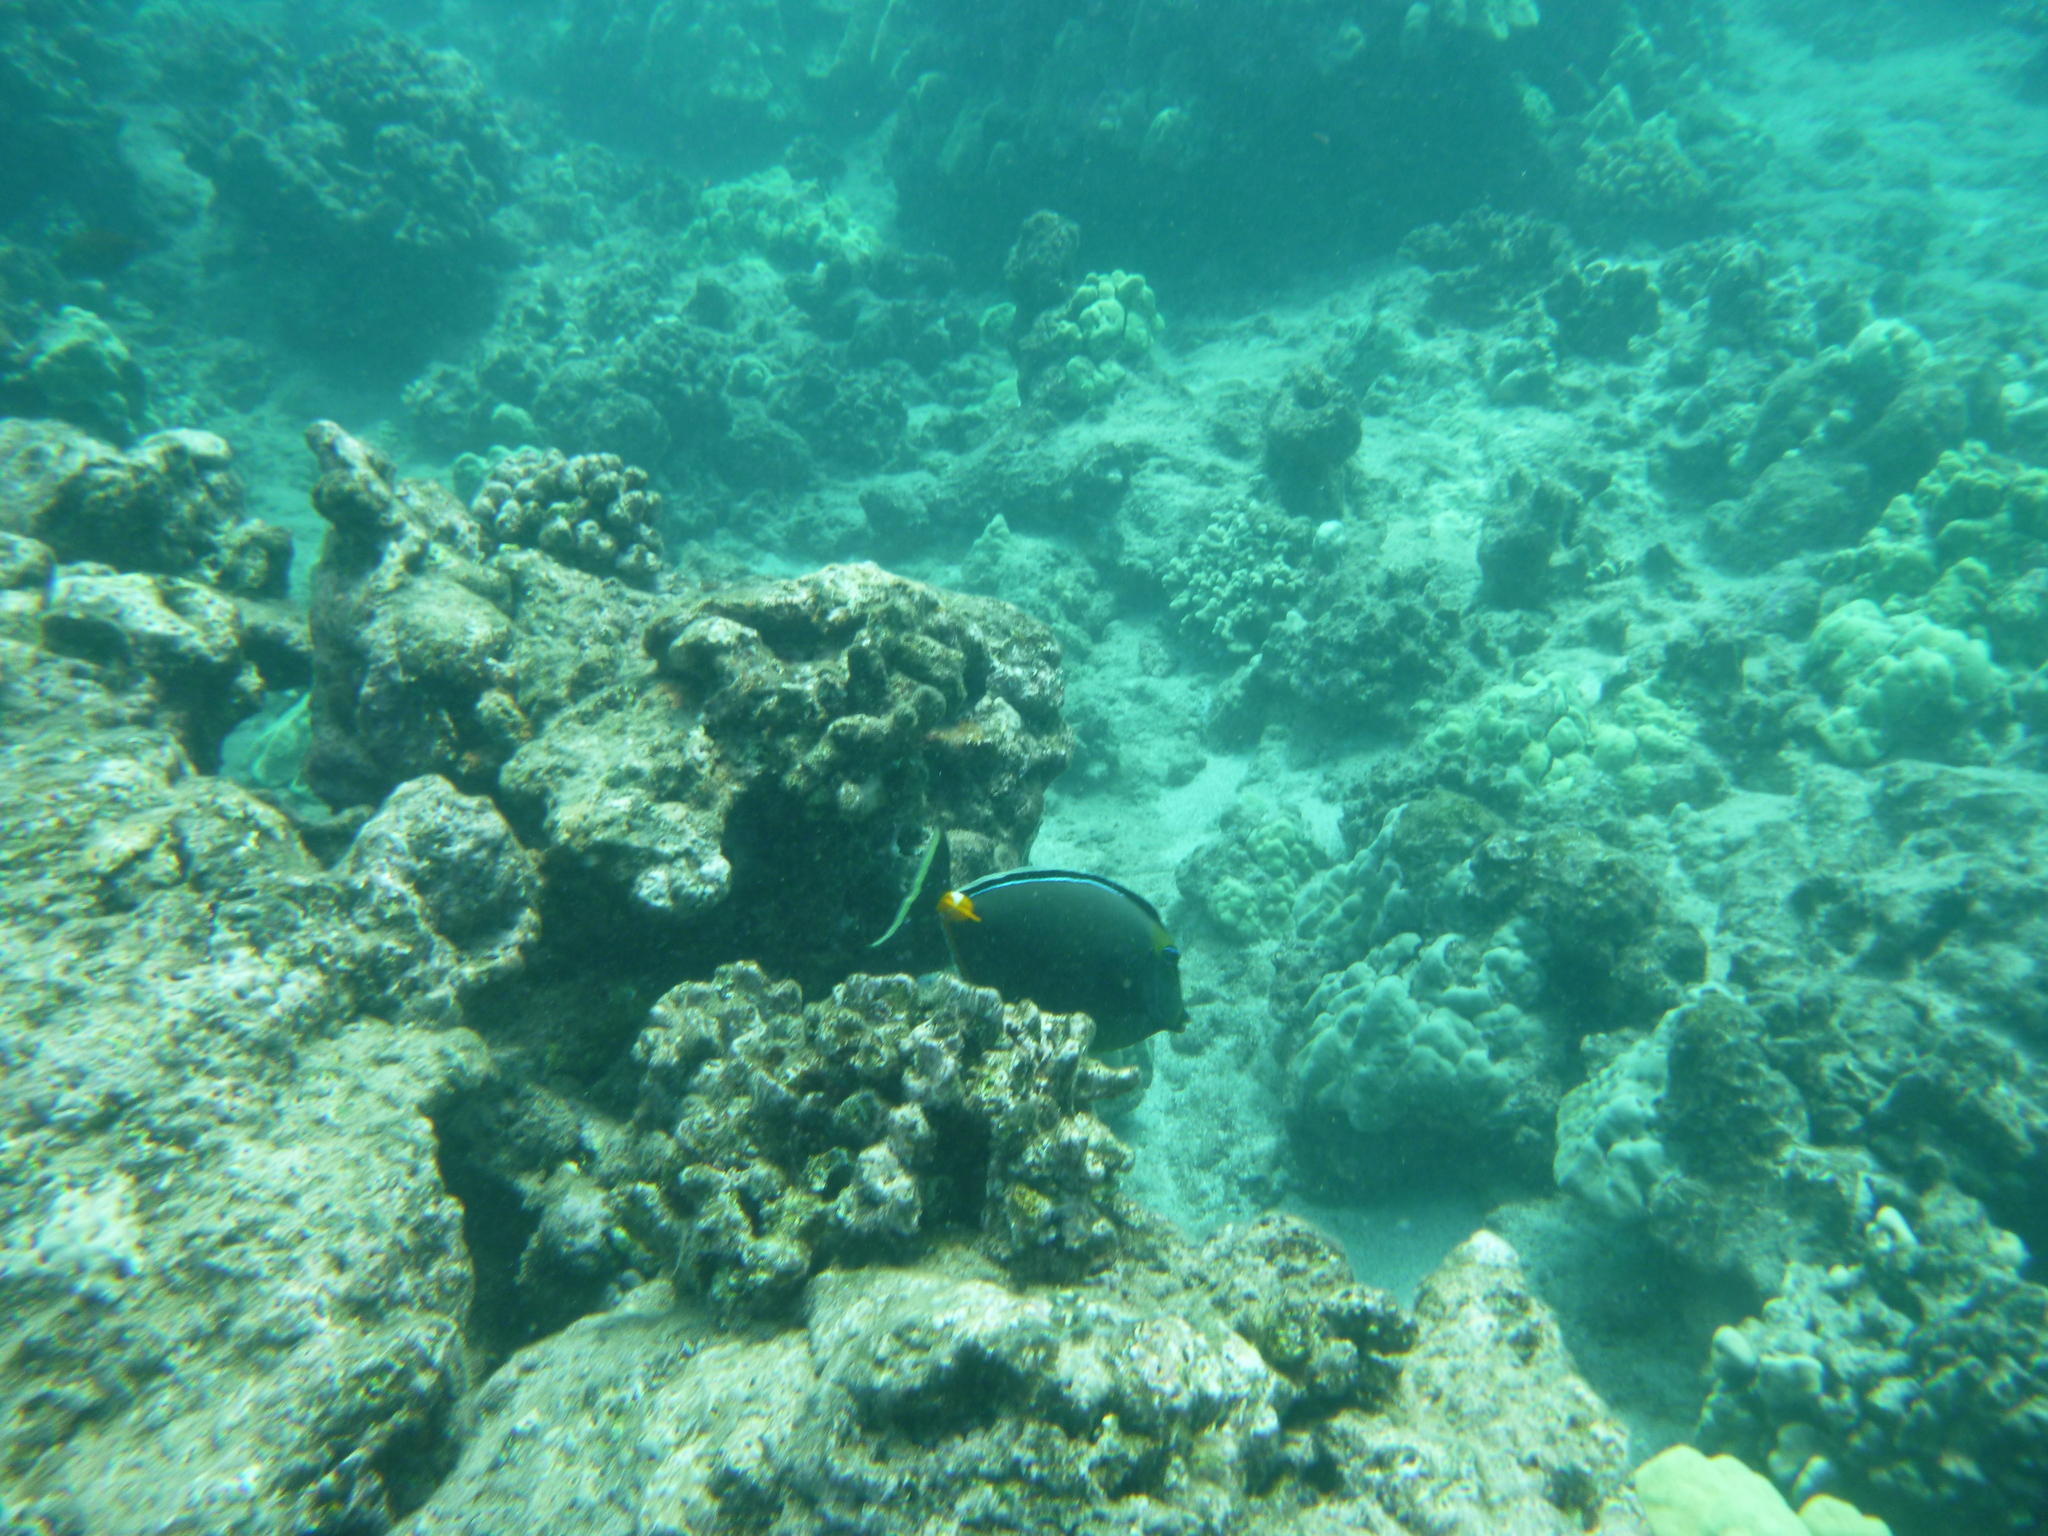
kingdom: Animalia
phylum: Chordata
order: Perciformes
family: Acanthuridae
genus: Naso
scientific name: Naso lituratus
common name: Orangespine unicornfish
